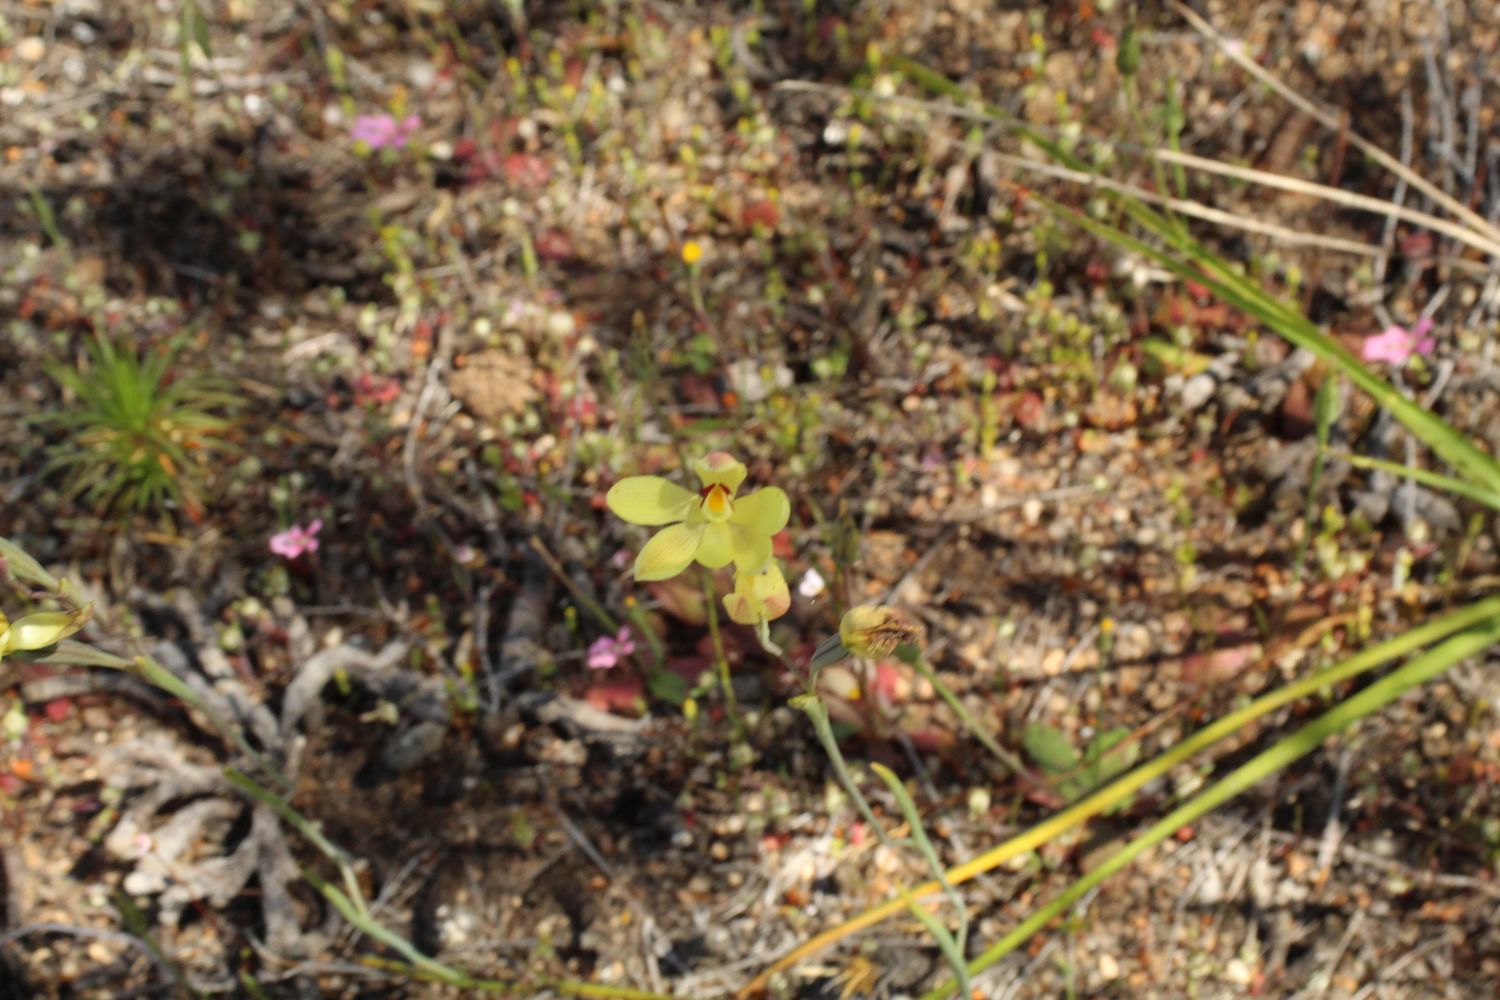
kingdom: Plantae
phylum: Tracheophyta
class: Liliopsida
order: Asparagales
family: Orchidaceae
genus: Thelymitra
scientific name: Thelymitra antennifera
